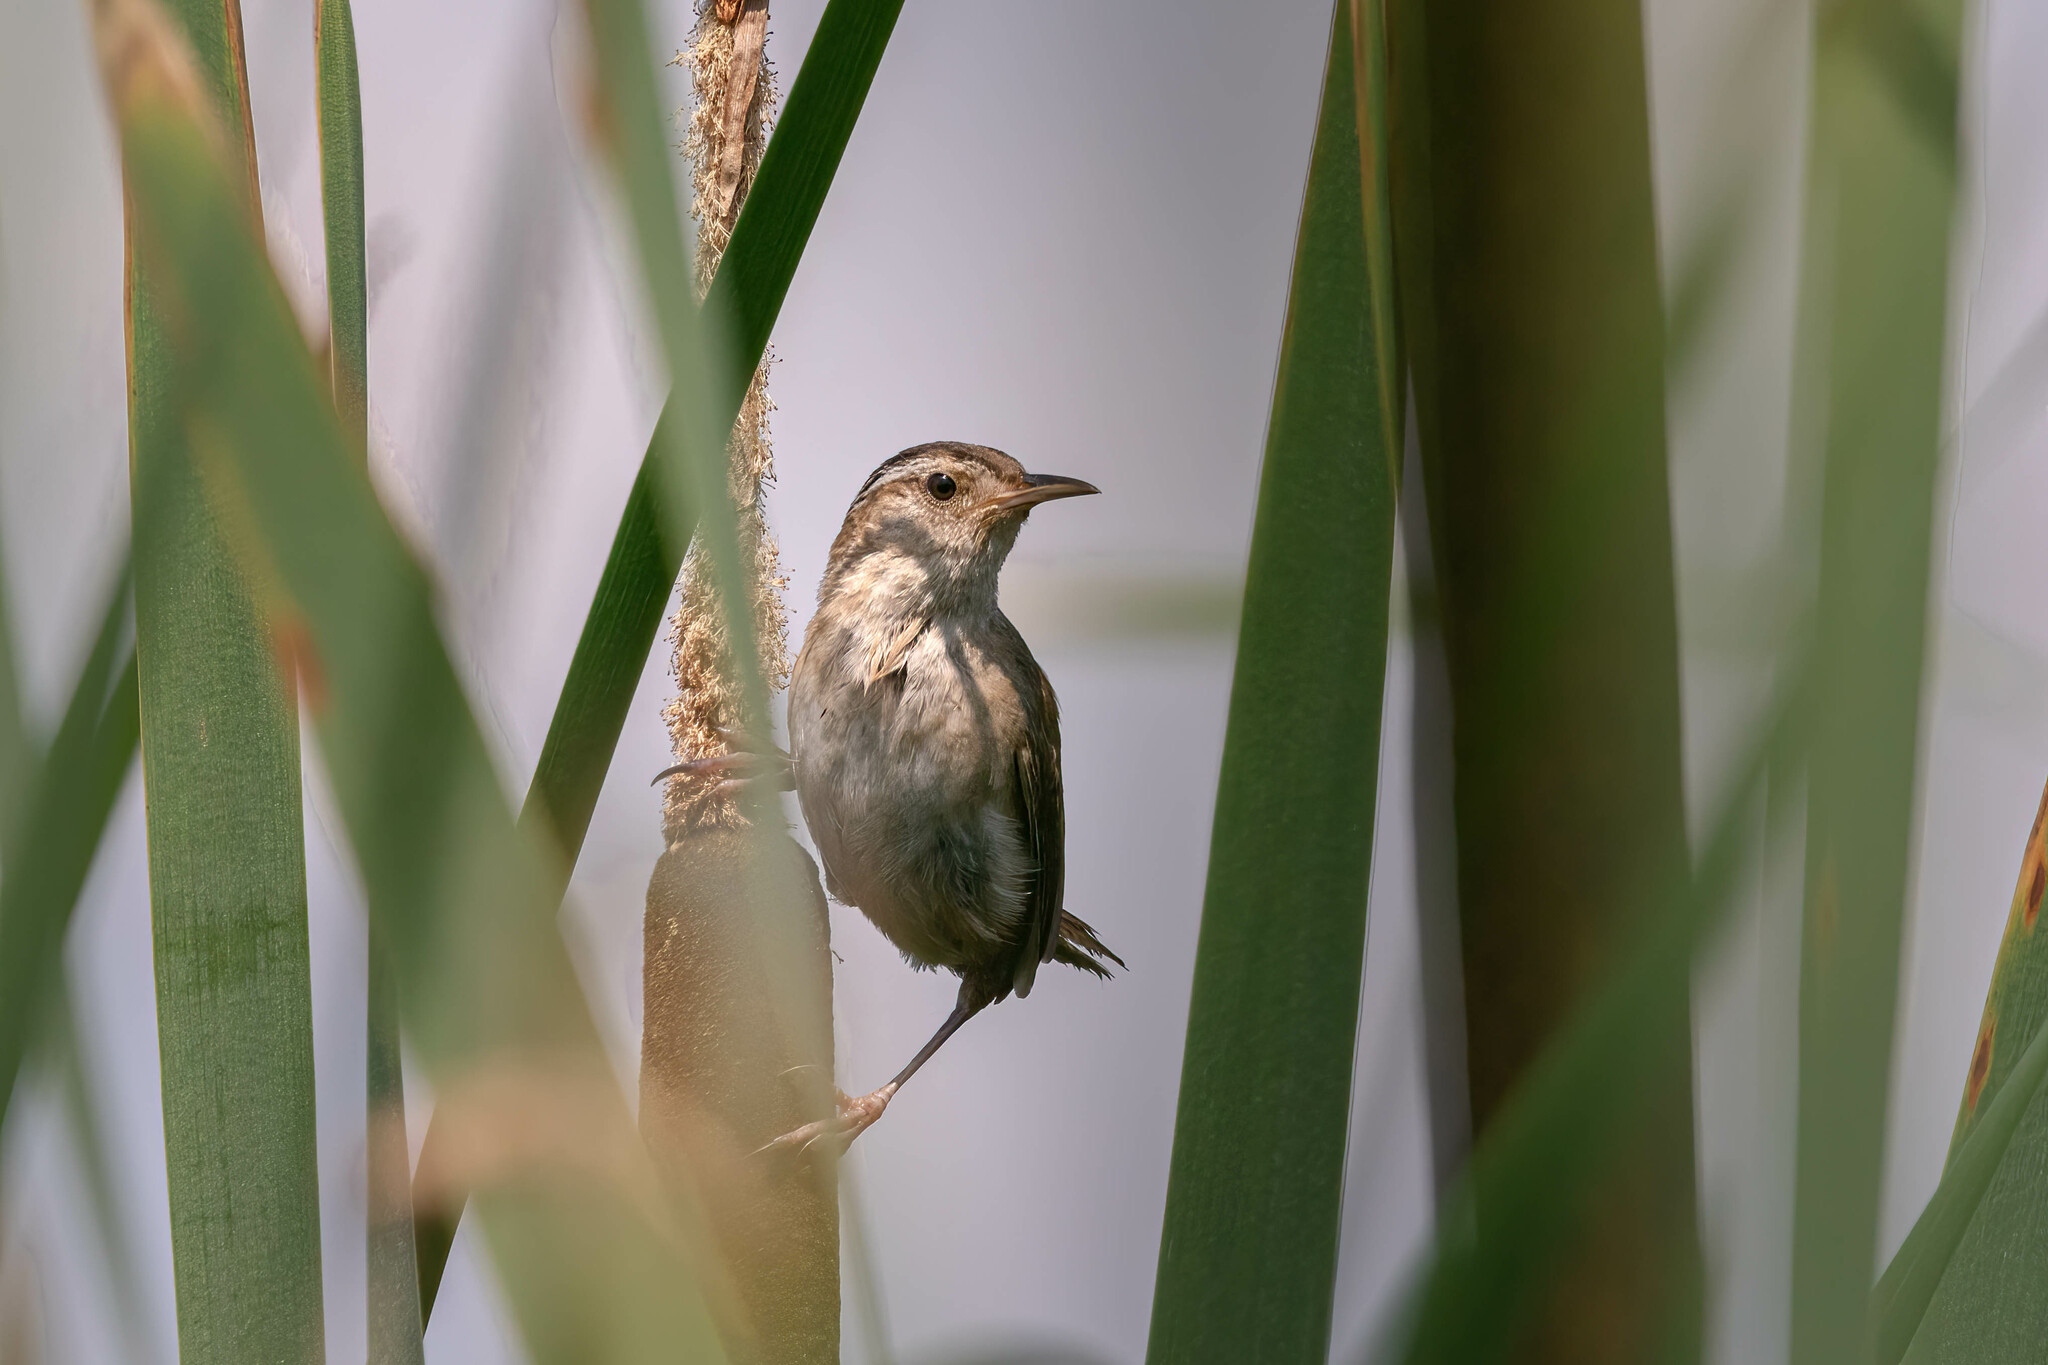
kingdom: Animalia
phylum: Chordata
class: Aves
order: Passeriformes
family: Troglodytidae
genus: Cistothorus
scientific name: Cistothorus palustris
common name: Marsh wren
